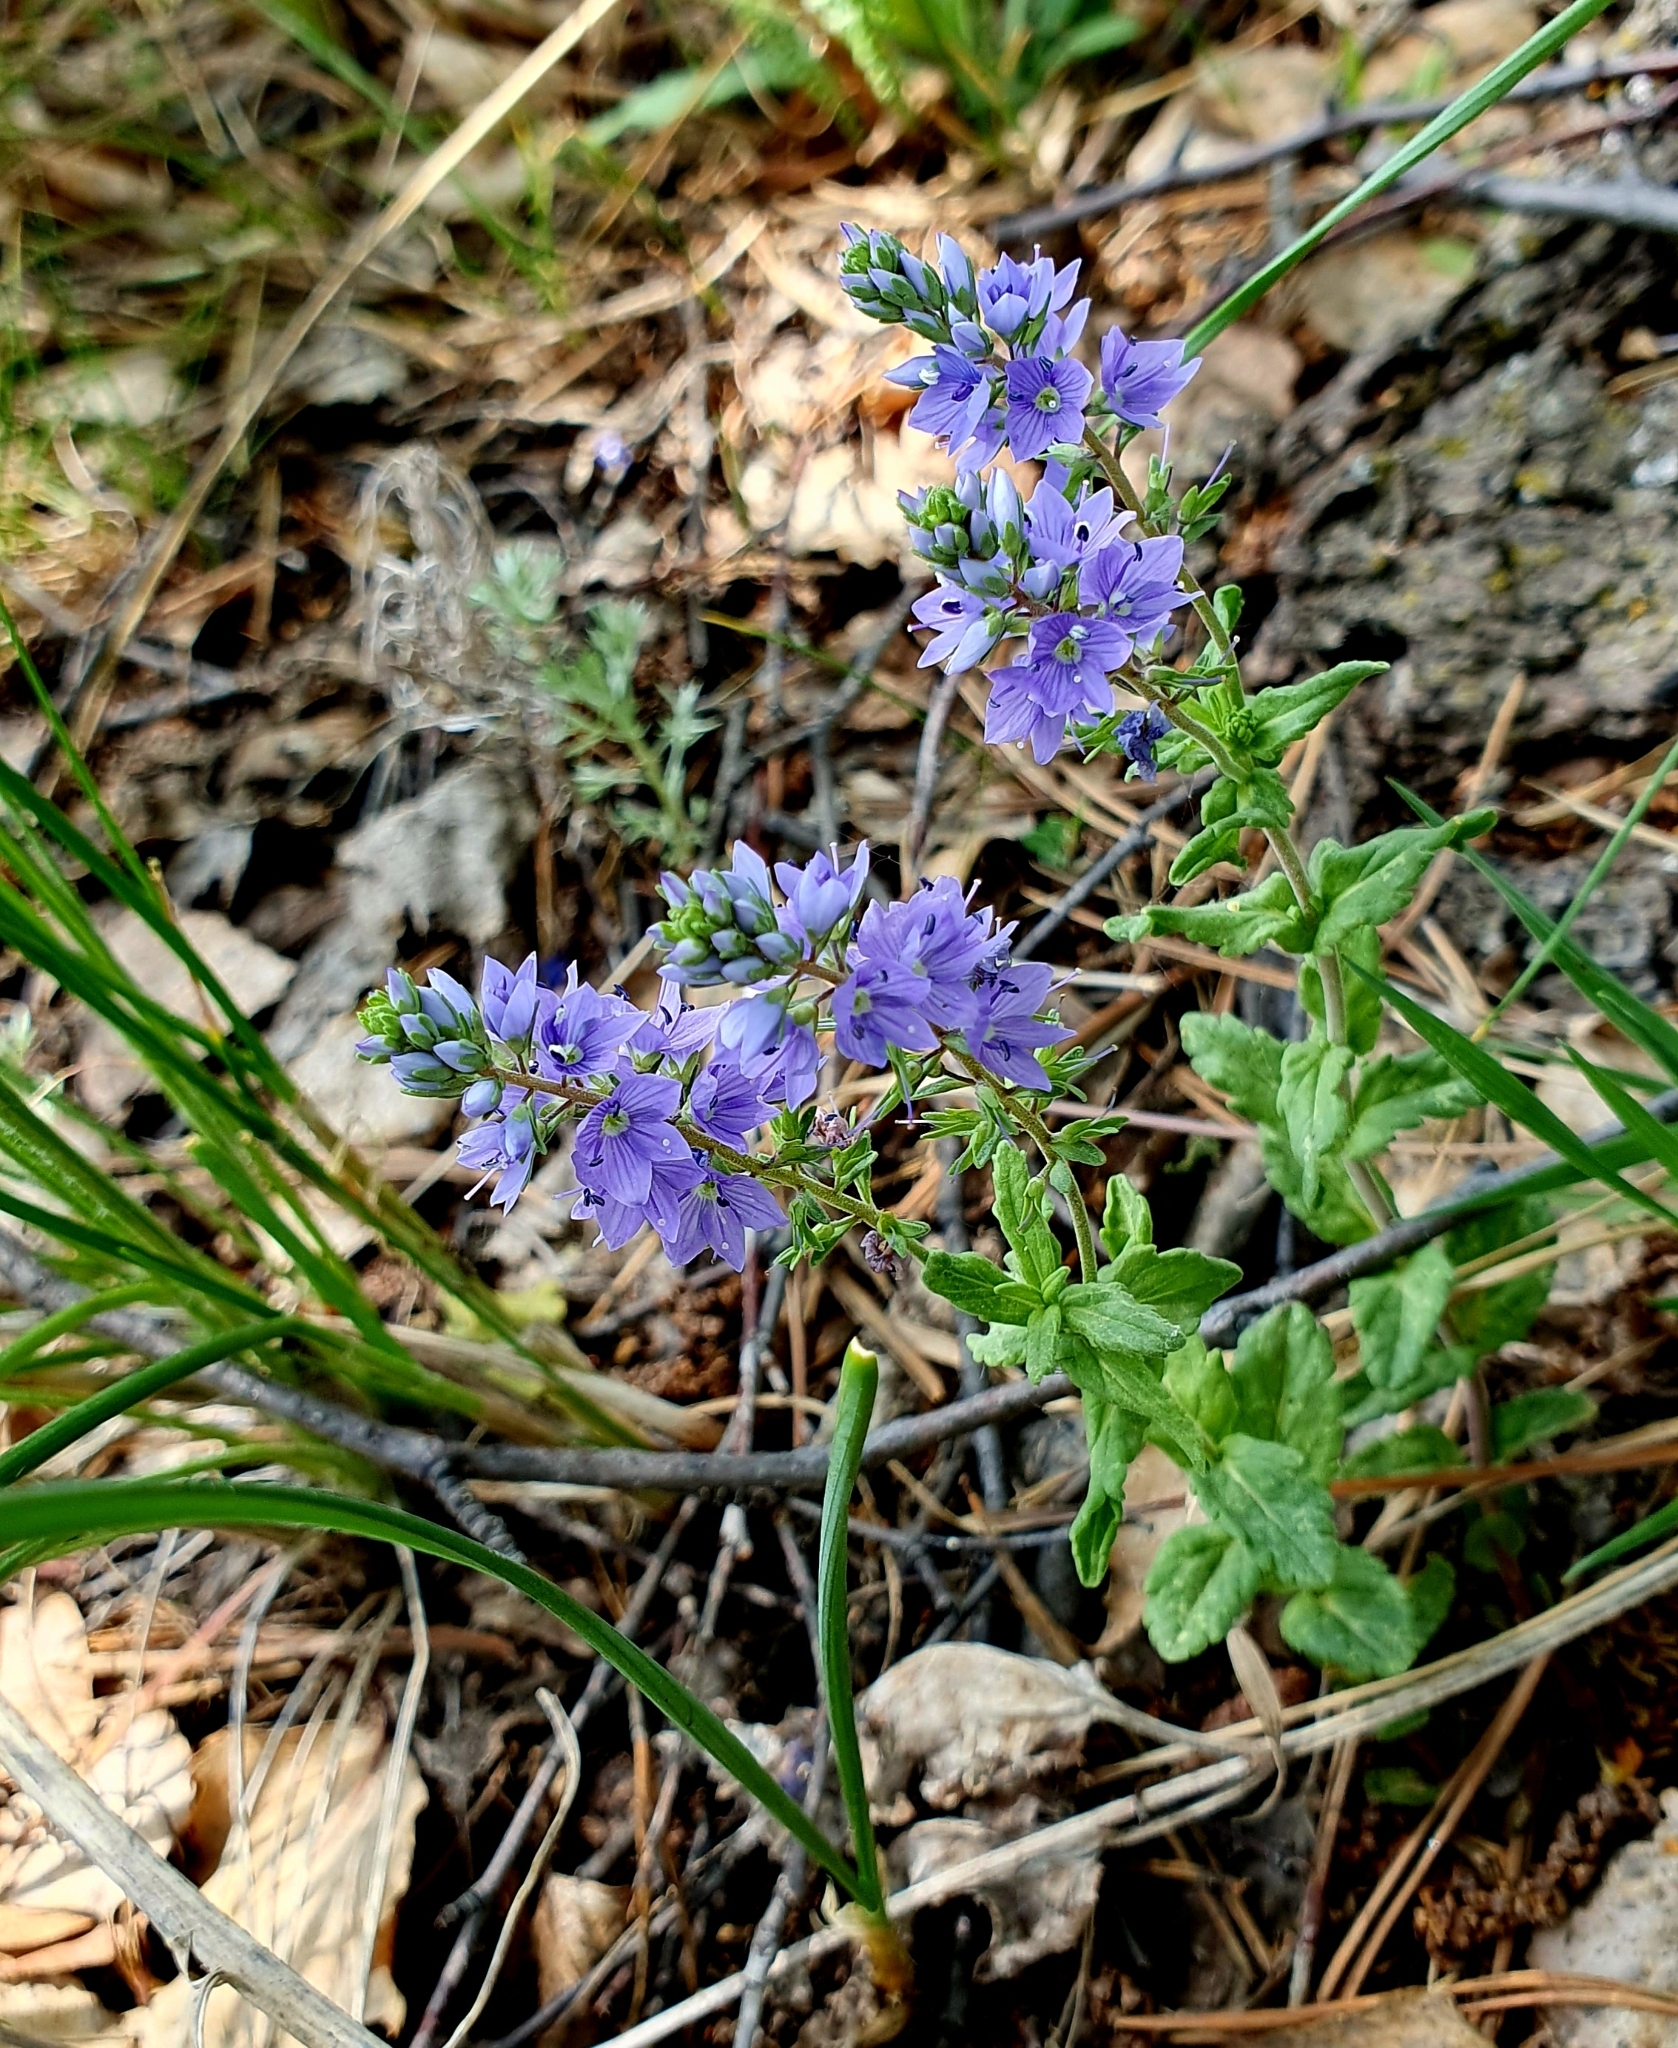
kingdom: Plantae
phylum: Tracheophyta
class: Magnoliopsida
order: Lamiales
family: Plantaginaceae
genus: Veronica
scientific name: Veronica prostrata
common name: Prostrate speedwell
